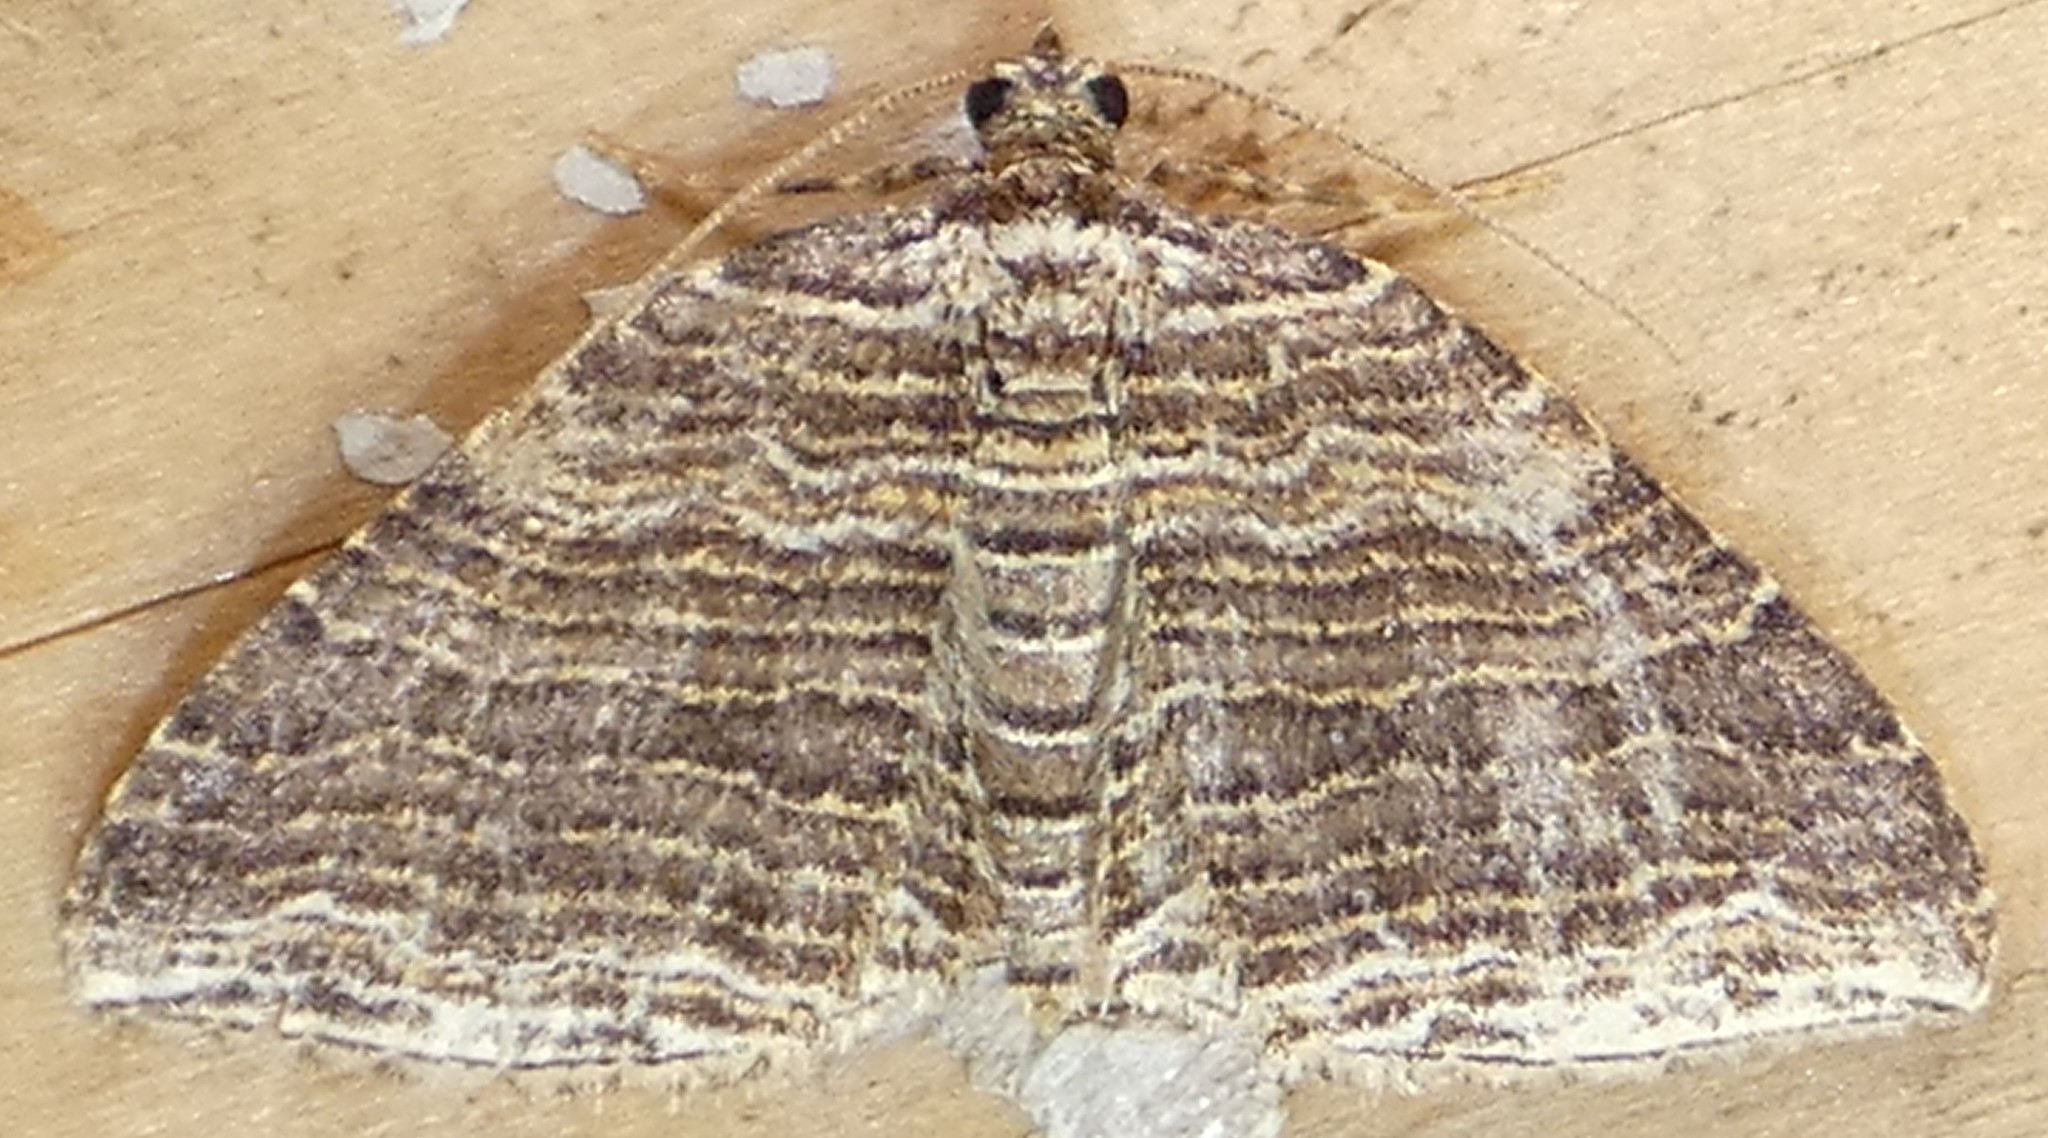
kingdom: Animalia
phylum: Arthropoda
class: Insecta
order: Lepidoptera
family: Geometridae
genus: Anticlea
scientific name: Anticlea multiferata
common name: Many-lined carpet
